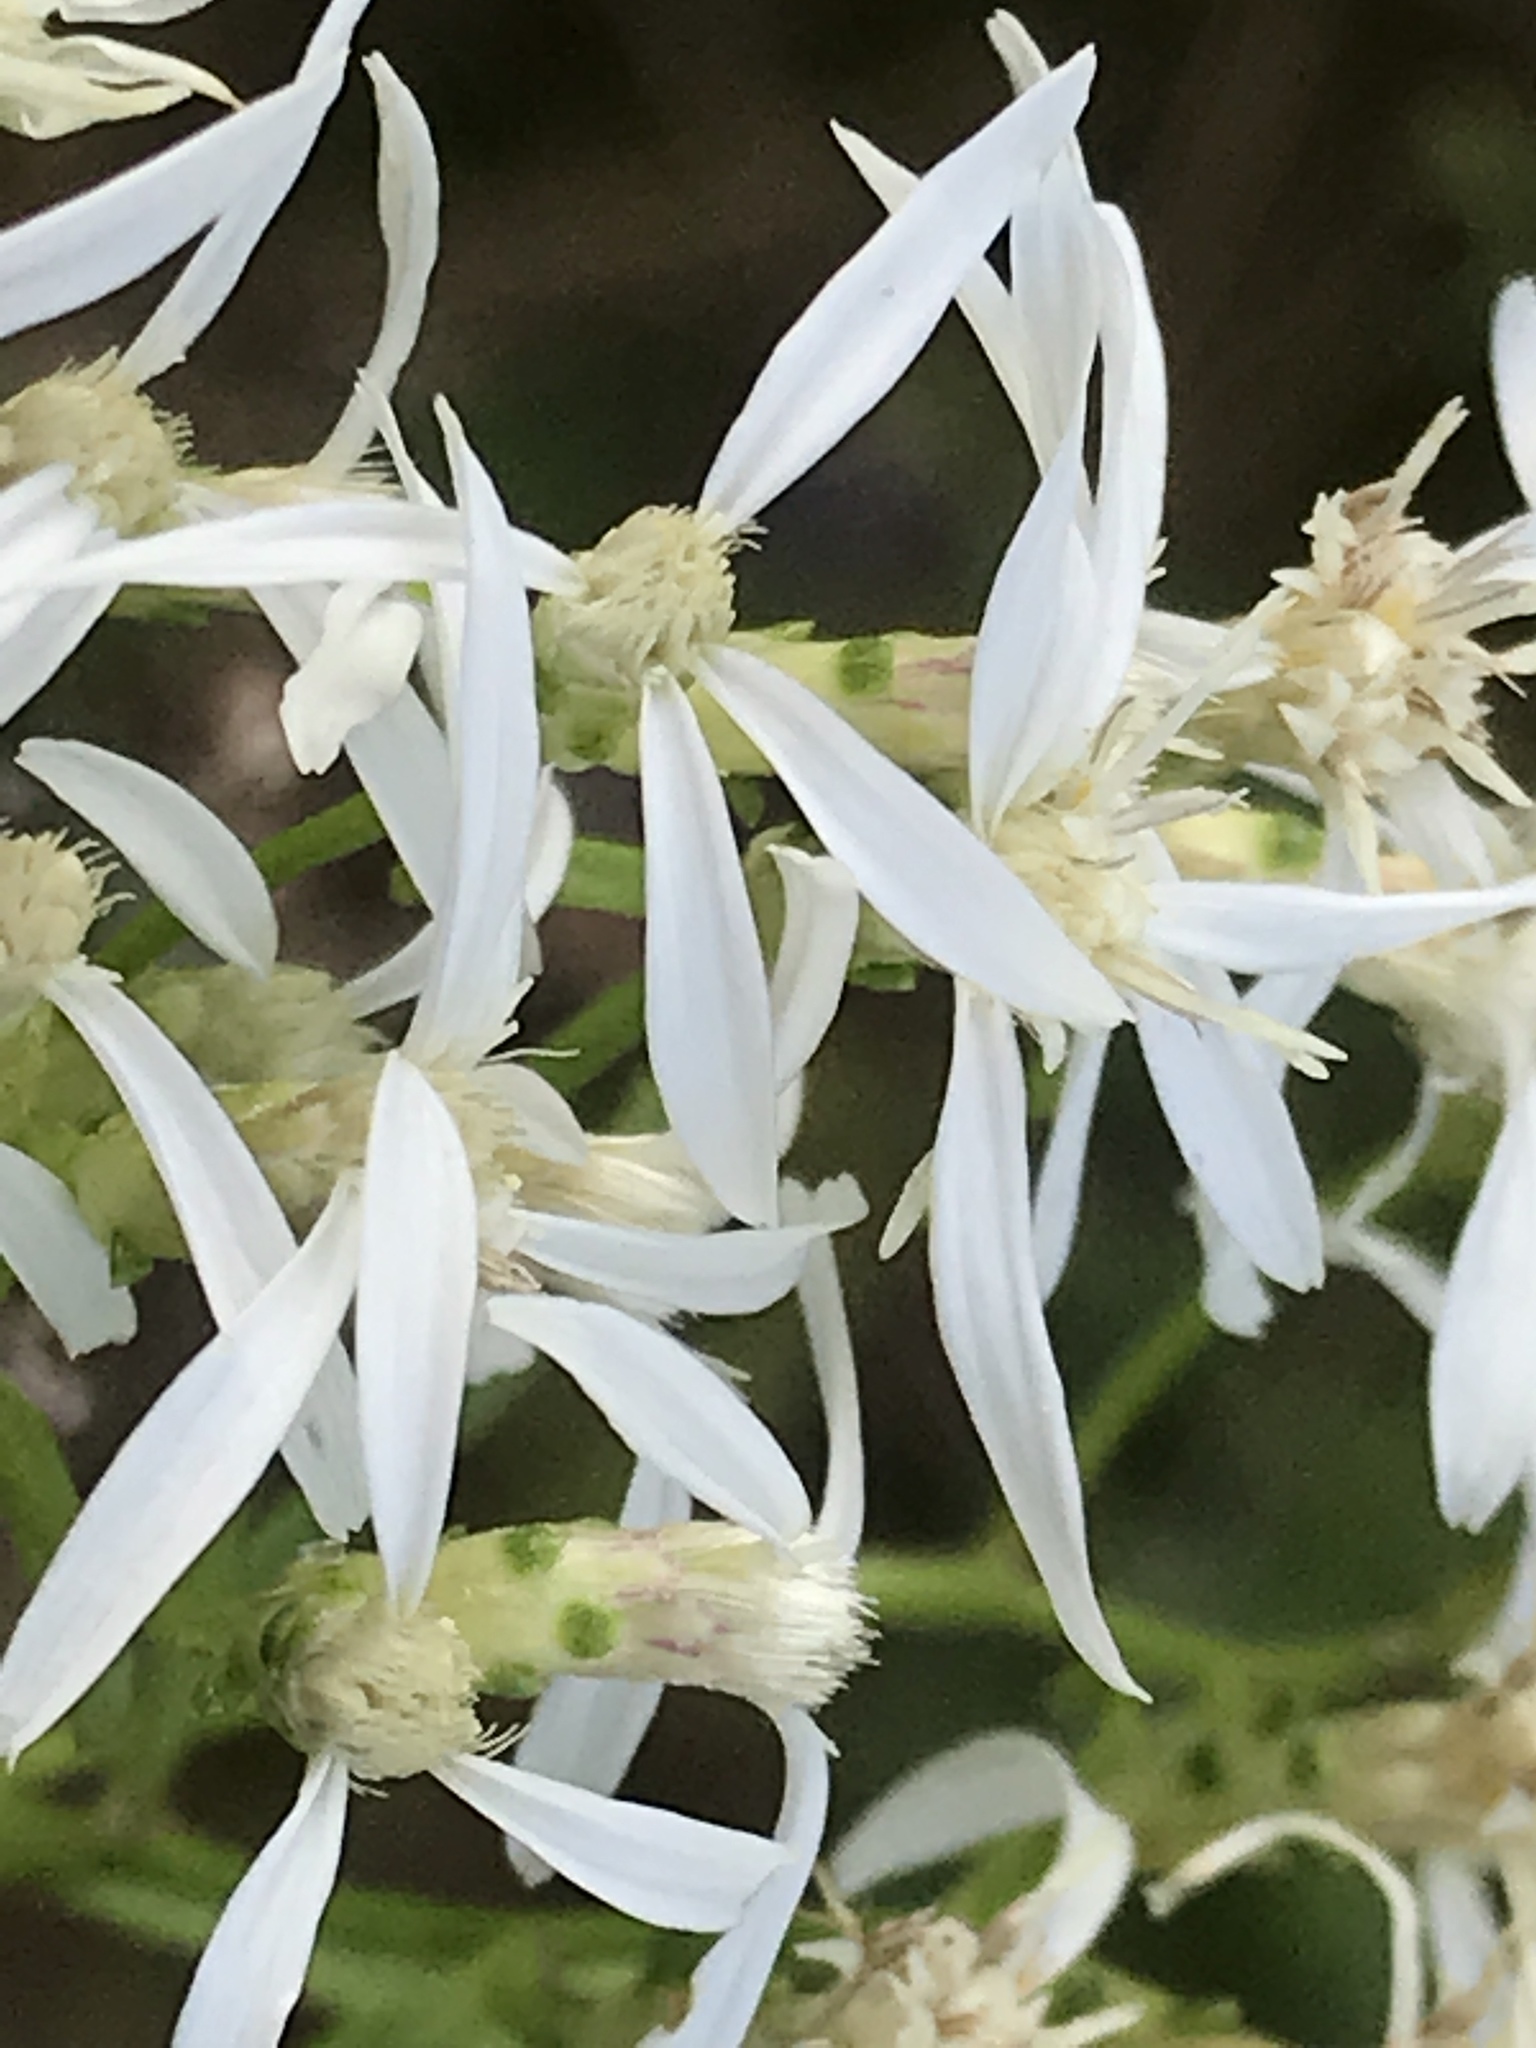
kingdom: Plantae
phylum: Tracheophyta
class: Magnoliopsida
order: Asterales
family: Asteraceae
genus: Sericocarpus
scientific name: Sericocarpus linifolius
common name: Narrow-leaf aster
